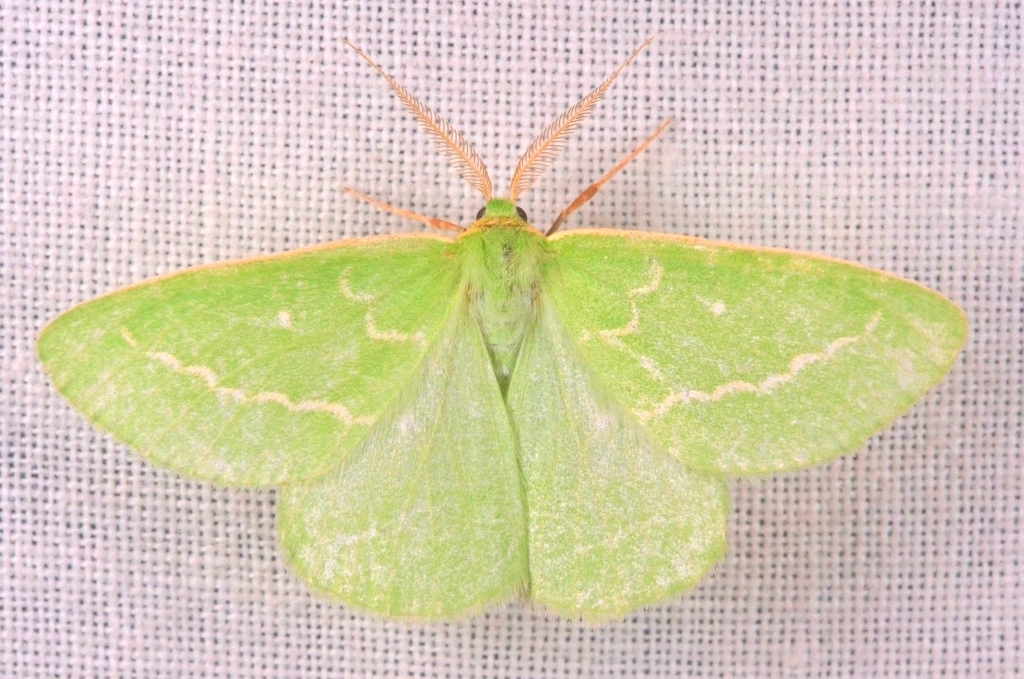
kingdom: Animalia
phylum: Arthropoda
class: Insecta
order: Lepidoptera
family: Geometridae
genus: Thetidia
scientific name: Thetidia smaragdaria
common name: Essex emerald
